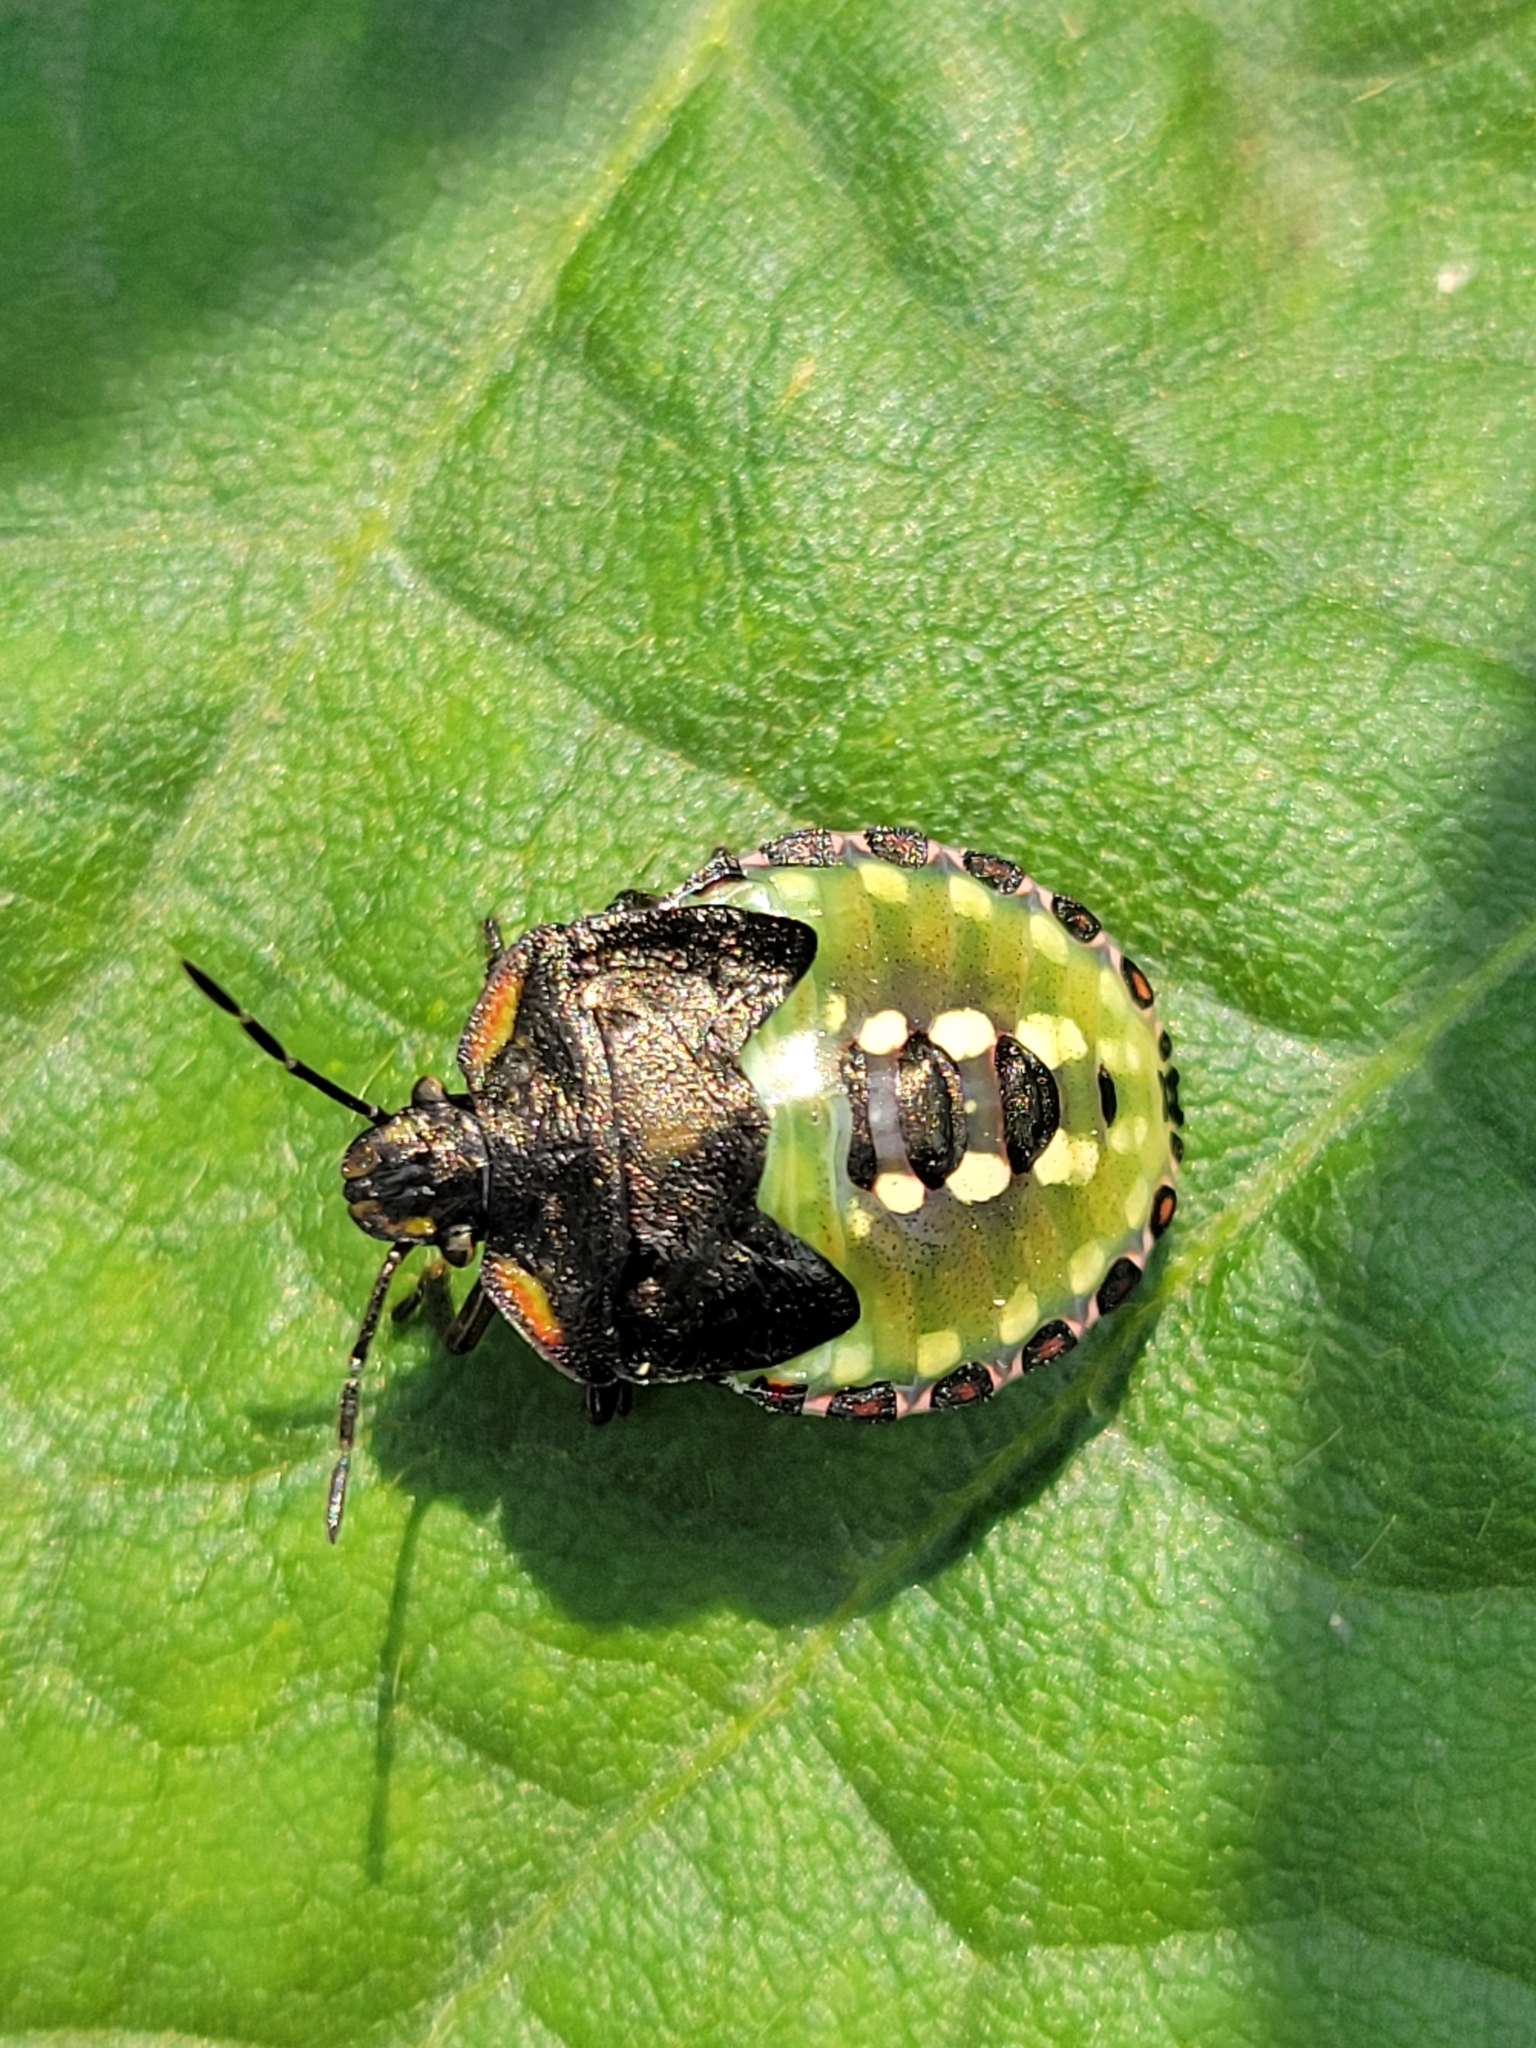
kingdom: Animalia
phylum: Arthropoda
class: Insecta
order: Hemiptera
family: Pentatomidae
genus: Nezara
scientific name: Nezara viridula
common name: Southern green stink bug
